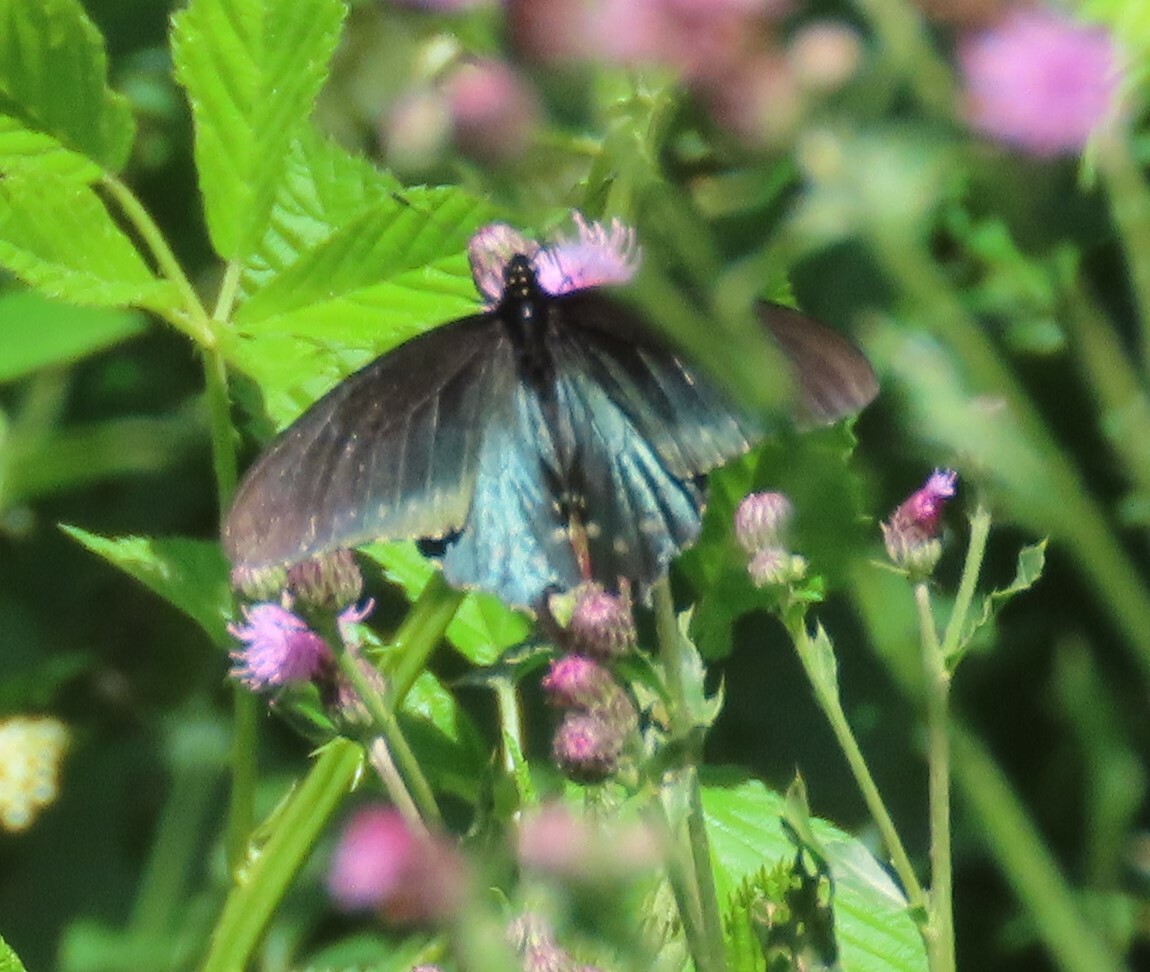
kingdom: Animalia
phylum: Arthropoda
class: Insecta
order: Lepidoptera
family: Papilionidae
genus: Battus
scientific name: Battus philenor
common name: Pipevine swallowtail
